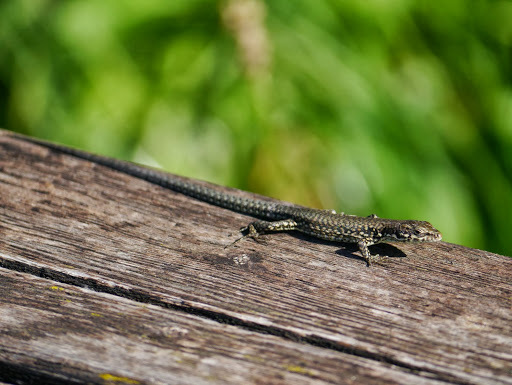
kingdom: Animalia
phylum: Chordata
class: Squamata
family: Lacertidae
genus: Podarcis
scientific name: Podarcis muralis
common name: Common wall lizard
